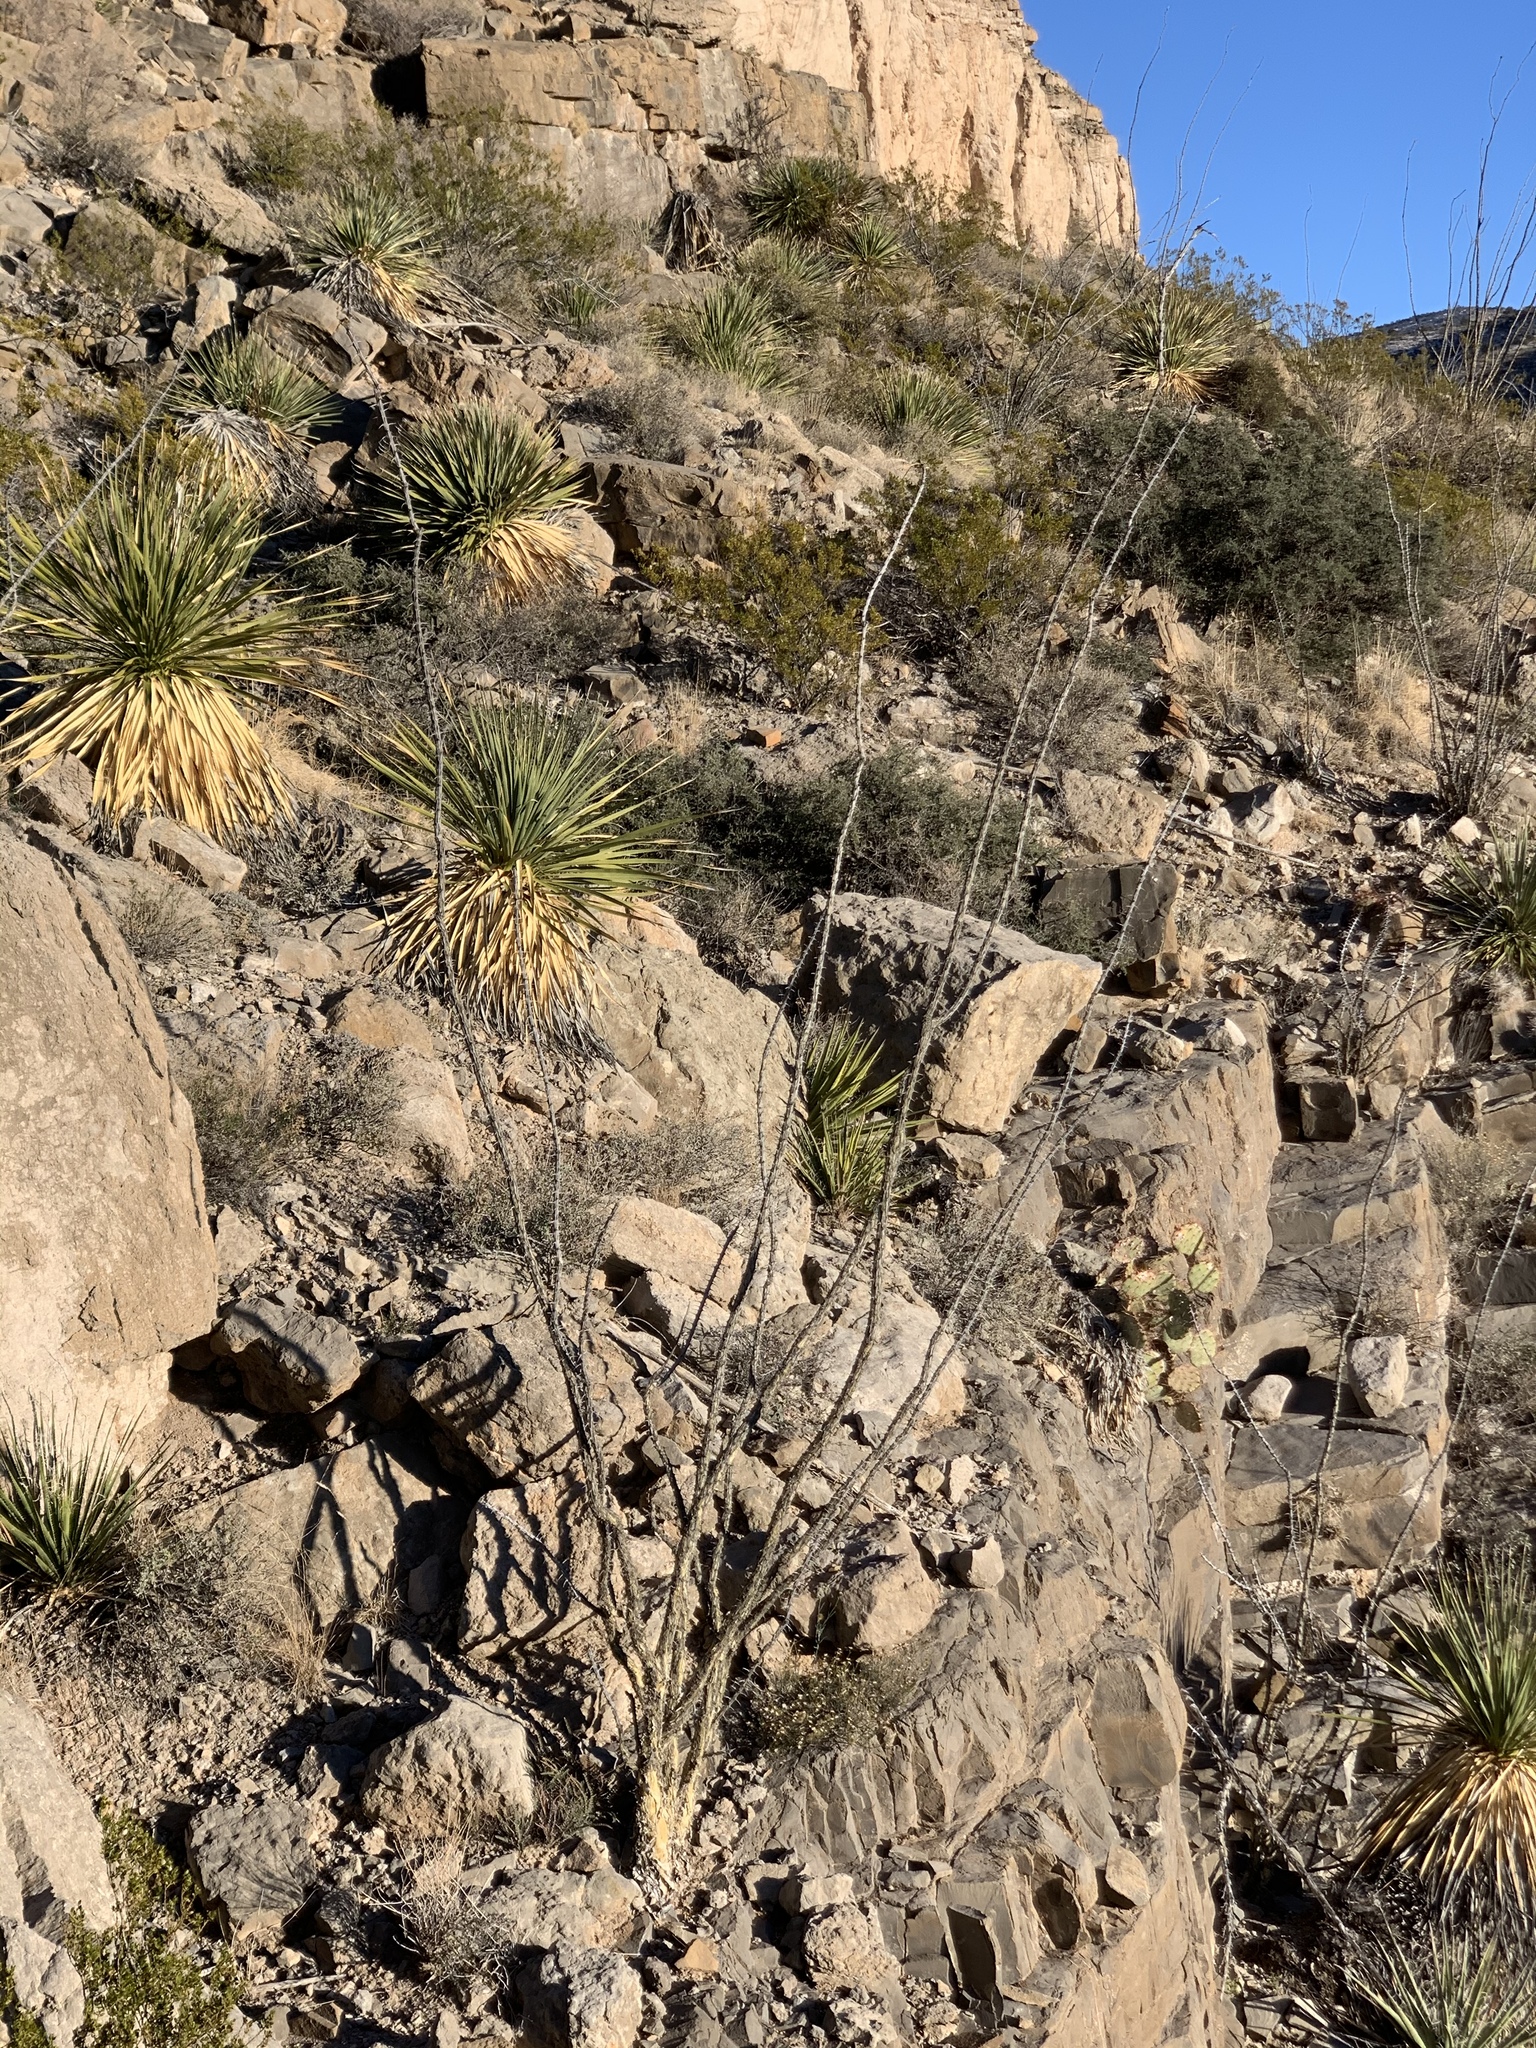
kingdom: Plantae
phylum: Tracheophyta
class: Magnoliopsida
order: Ericales
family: Fouquieriaceae
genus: Fouquieria
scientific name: Fouquieria splendens
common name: Vine-cactus
